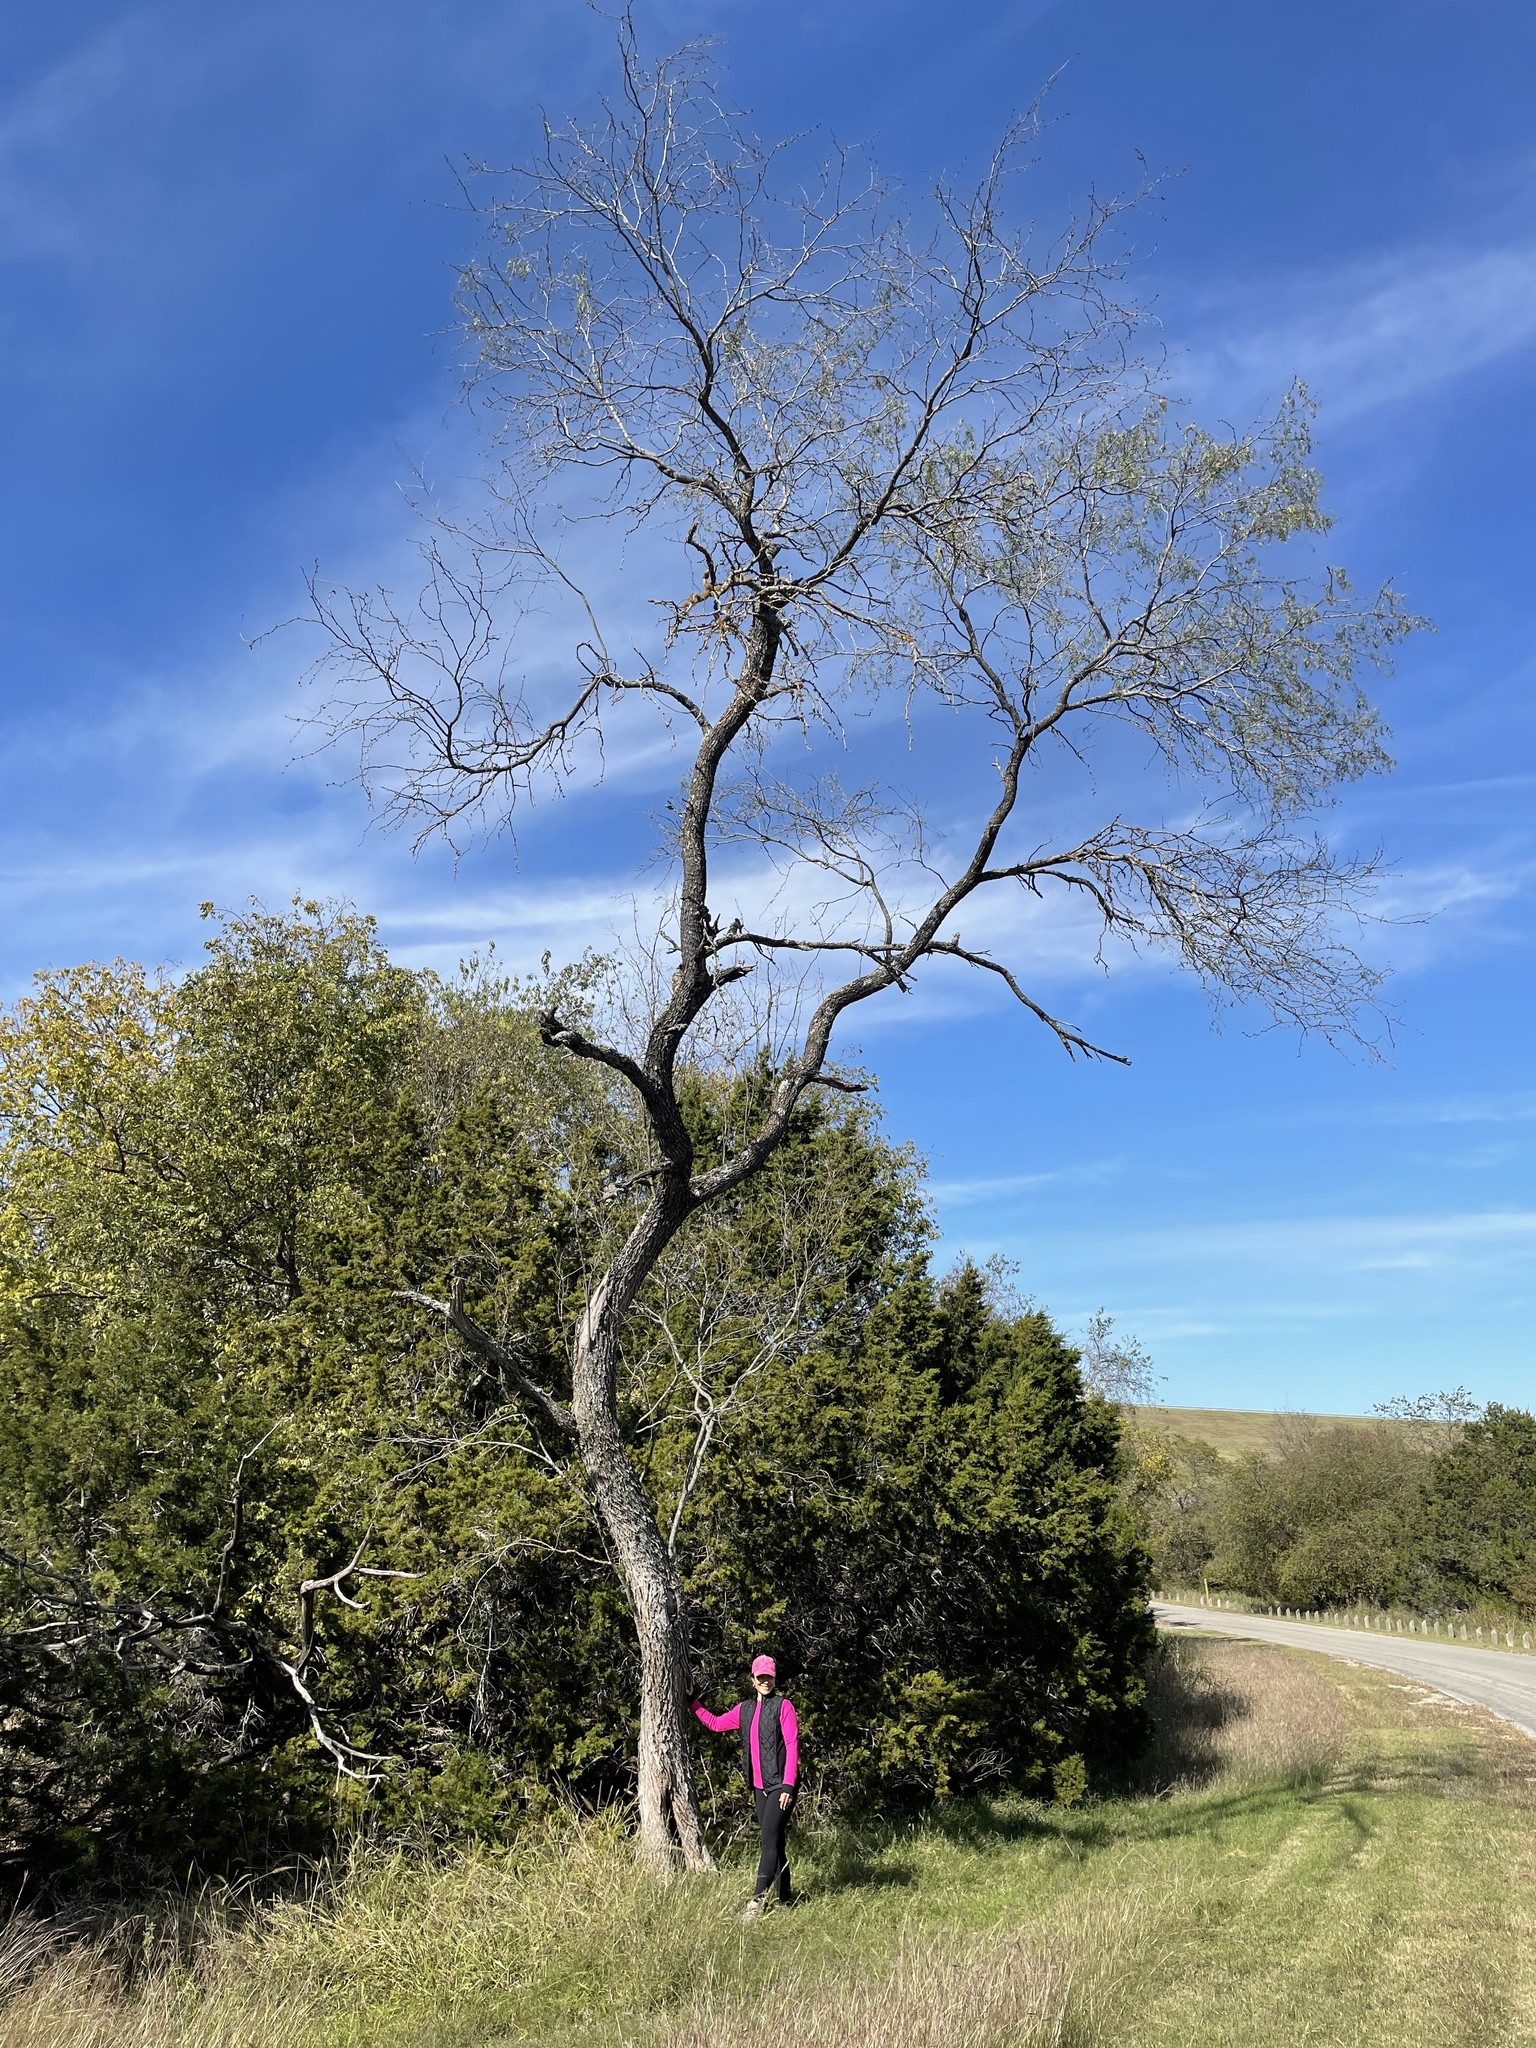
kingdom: Plantae
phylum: Tracheophyta
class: Magnoliopsida
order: Fabales
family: Fabaceae
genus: Prosopis
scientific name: Prosopis glandulosa
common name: Honey mesquite
